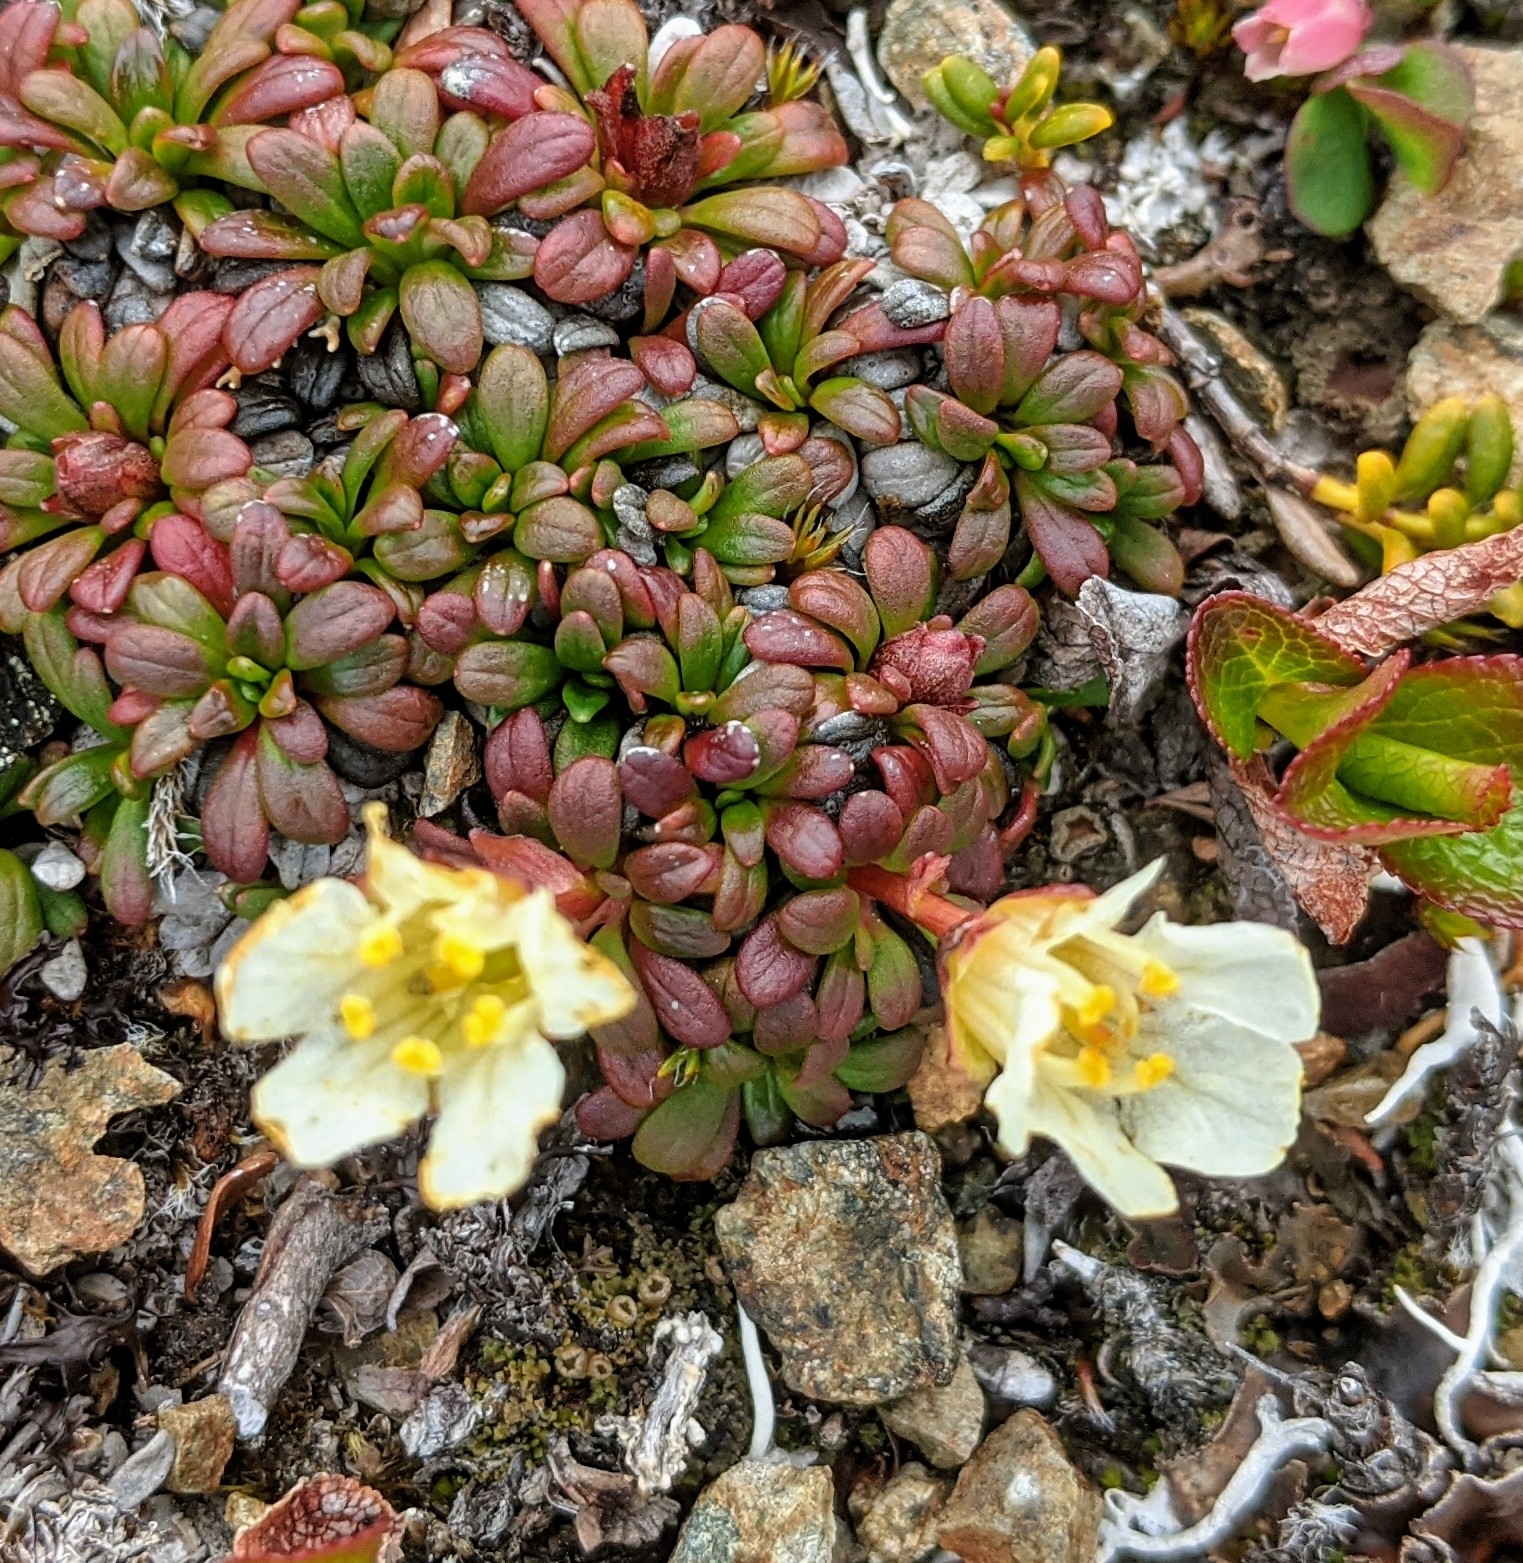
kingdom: Plantae
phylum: Tracheophyta
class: Magnoliopsida
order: Ericales
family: Diapensiaceae
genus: Diapensia
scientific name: Diapensia obovata
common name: Alaska diapensia
